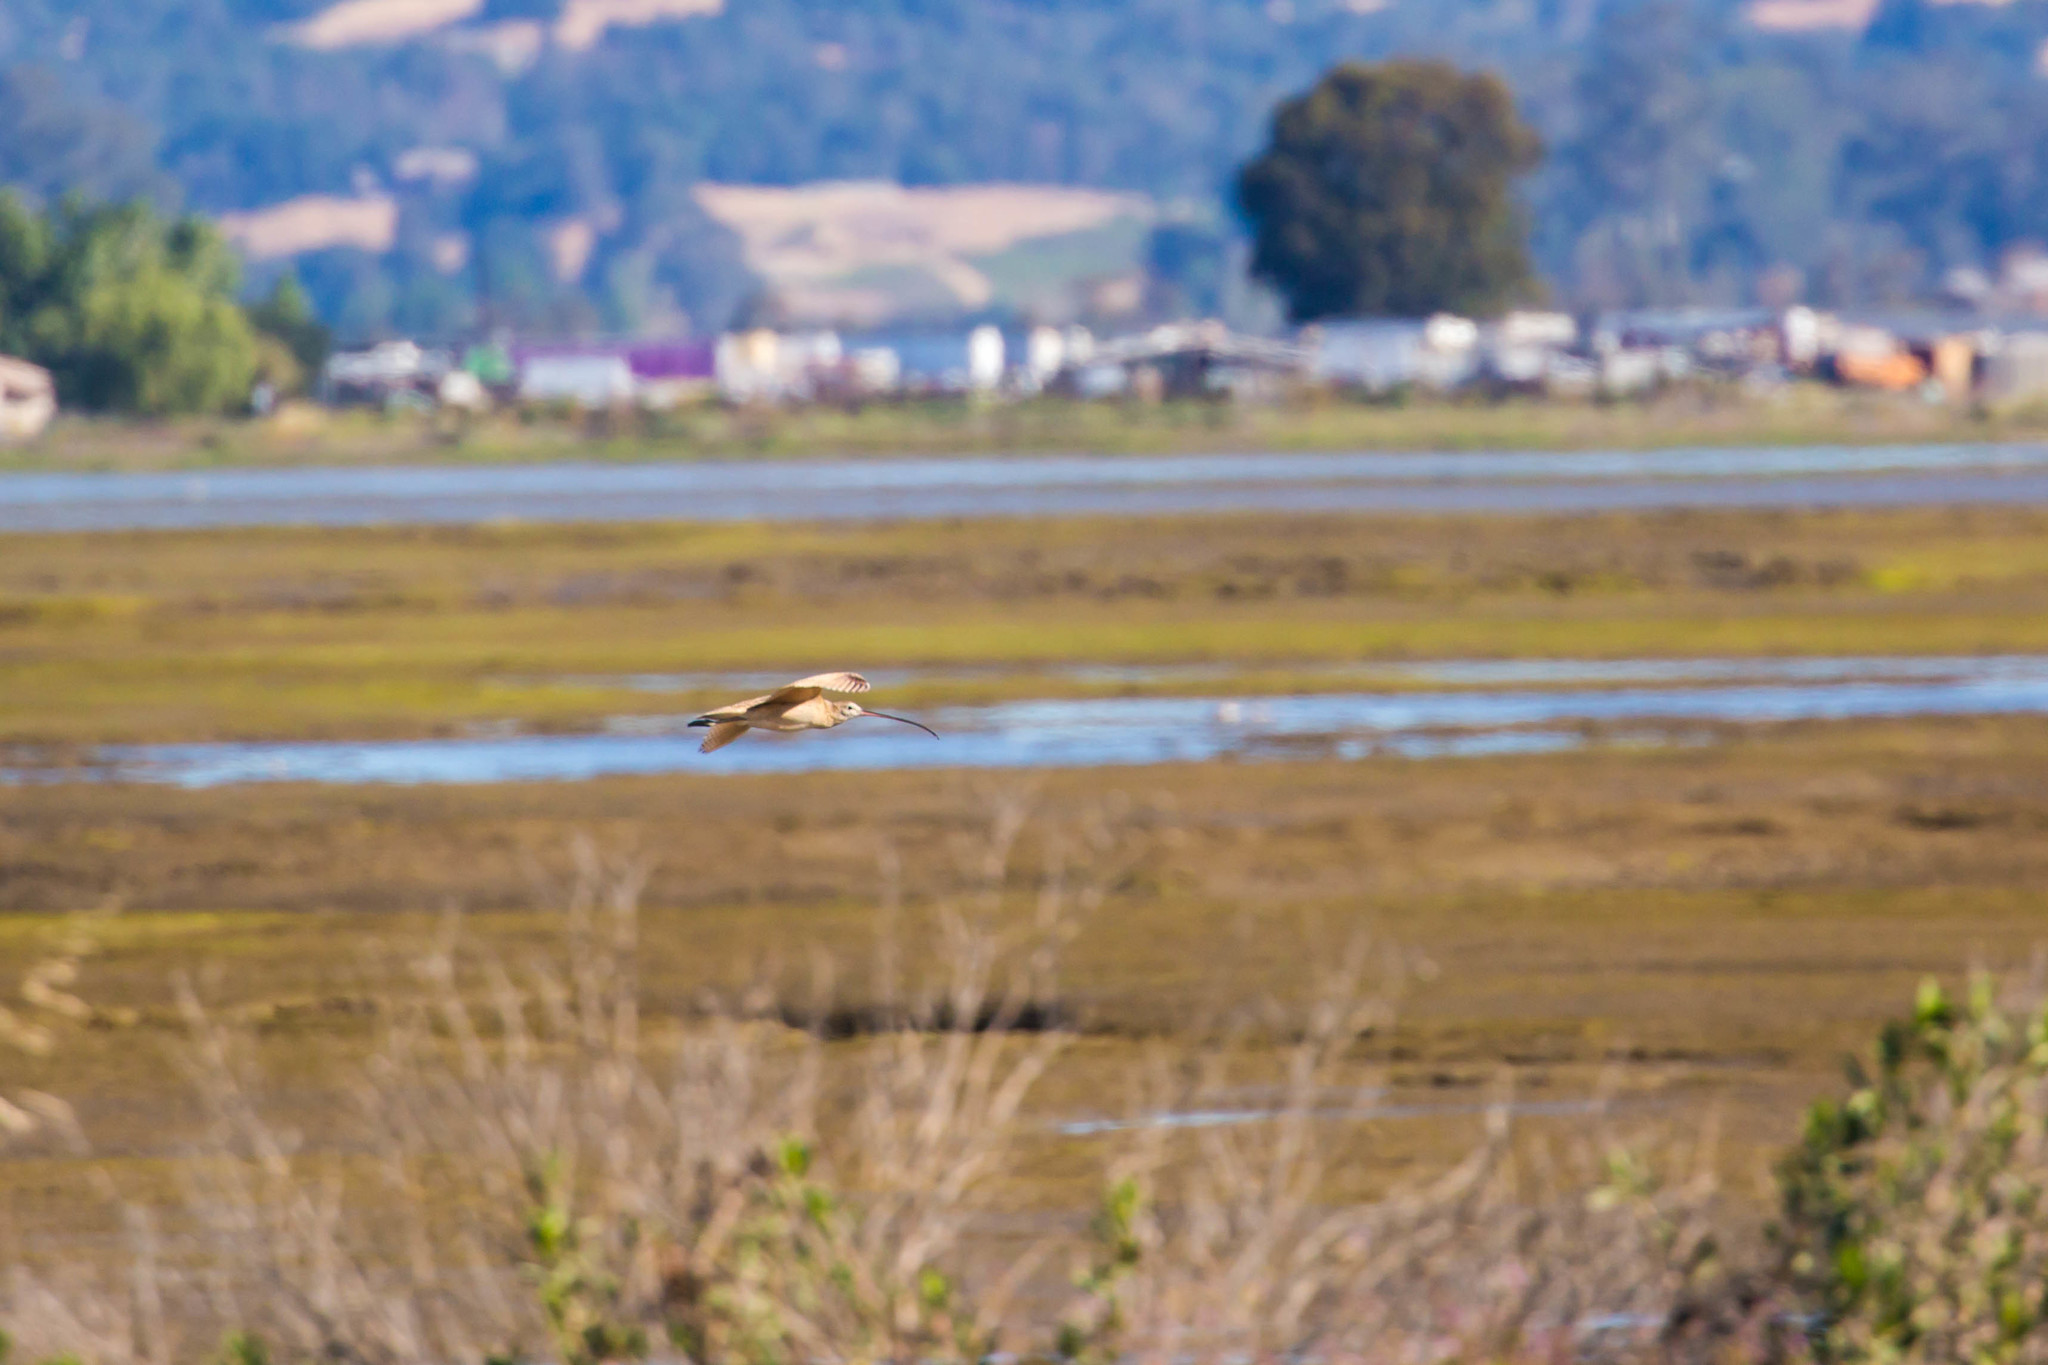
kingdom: Animalia
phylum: Chordata
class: Aves
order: Charadriiformes
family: Scolopacidae
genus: Numenius
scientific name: Numenius americanus
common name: Long-billed curlew
